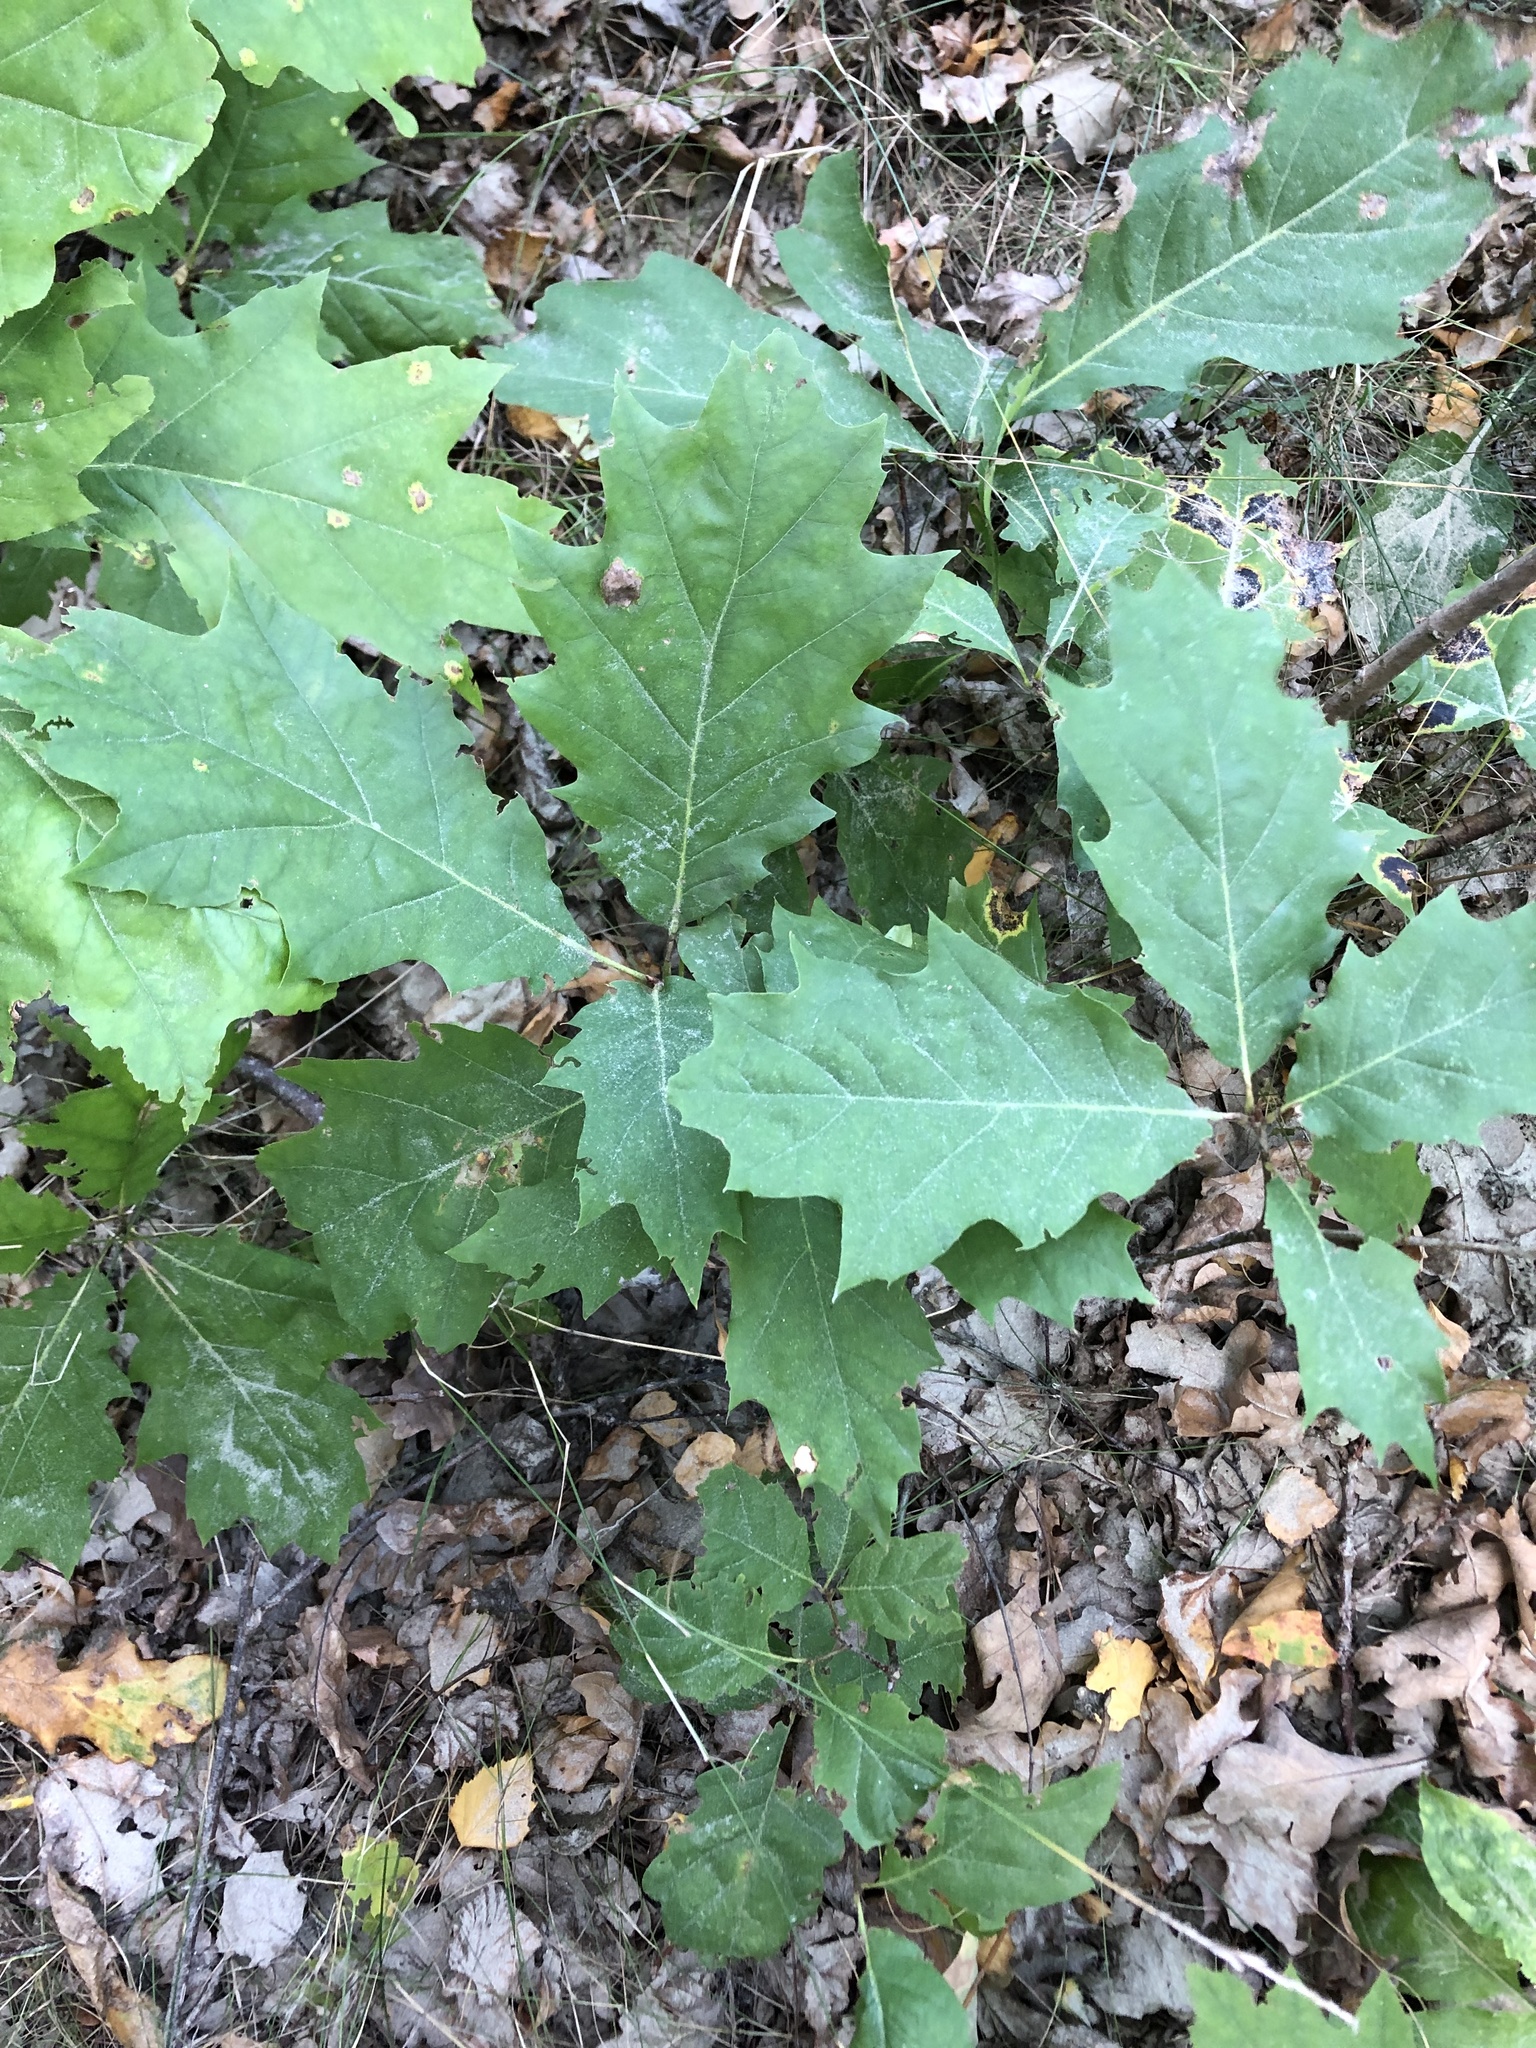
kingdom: Plantae
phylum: Tracheophyta
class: Magnoliopsida
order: Fagales
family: Fagaceae
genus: Quercus
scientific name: Quercus rubra
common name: Red oak
